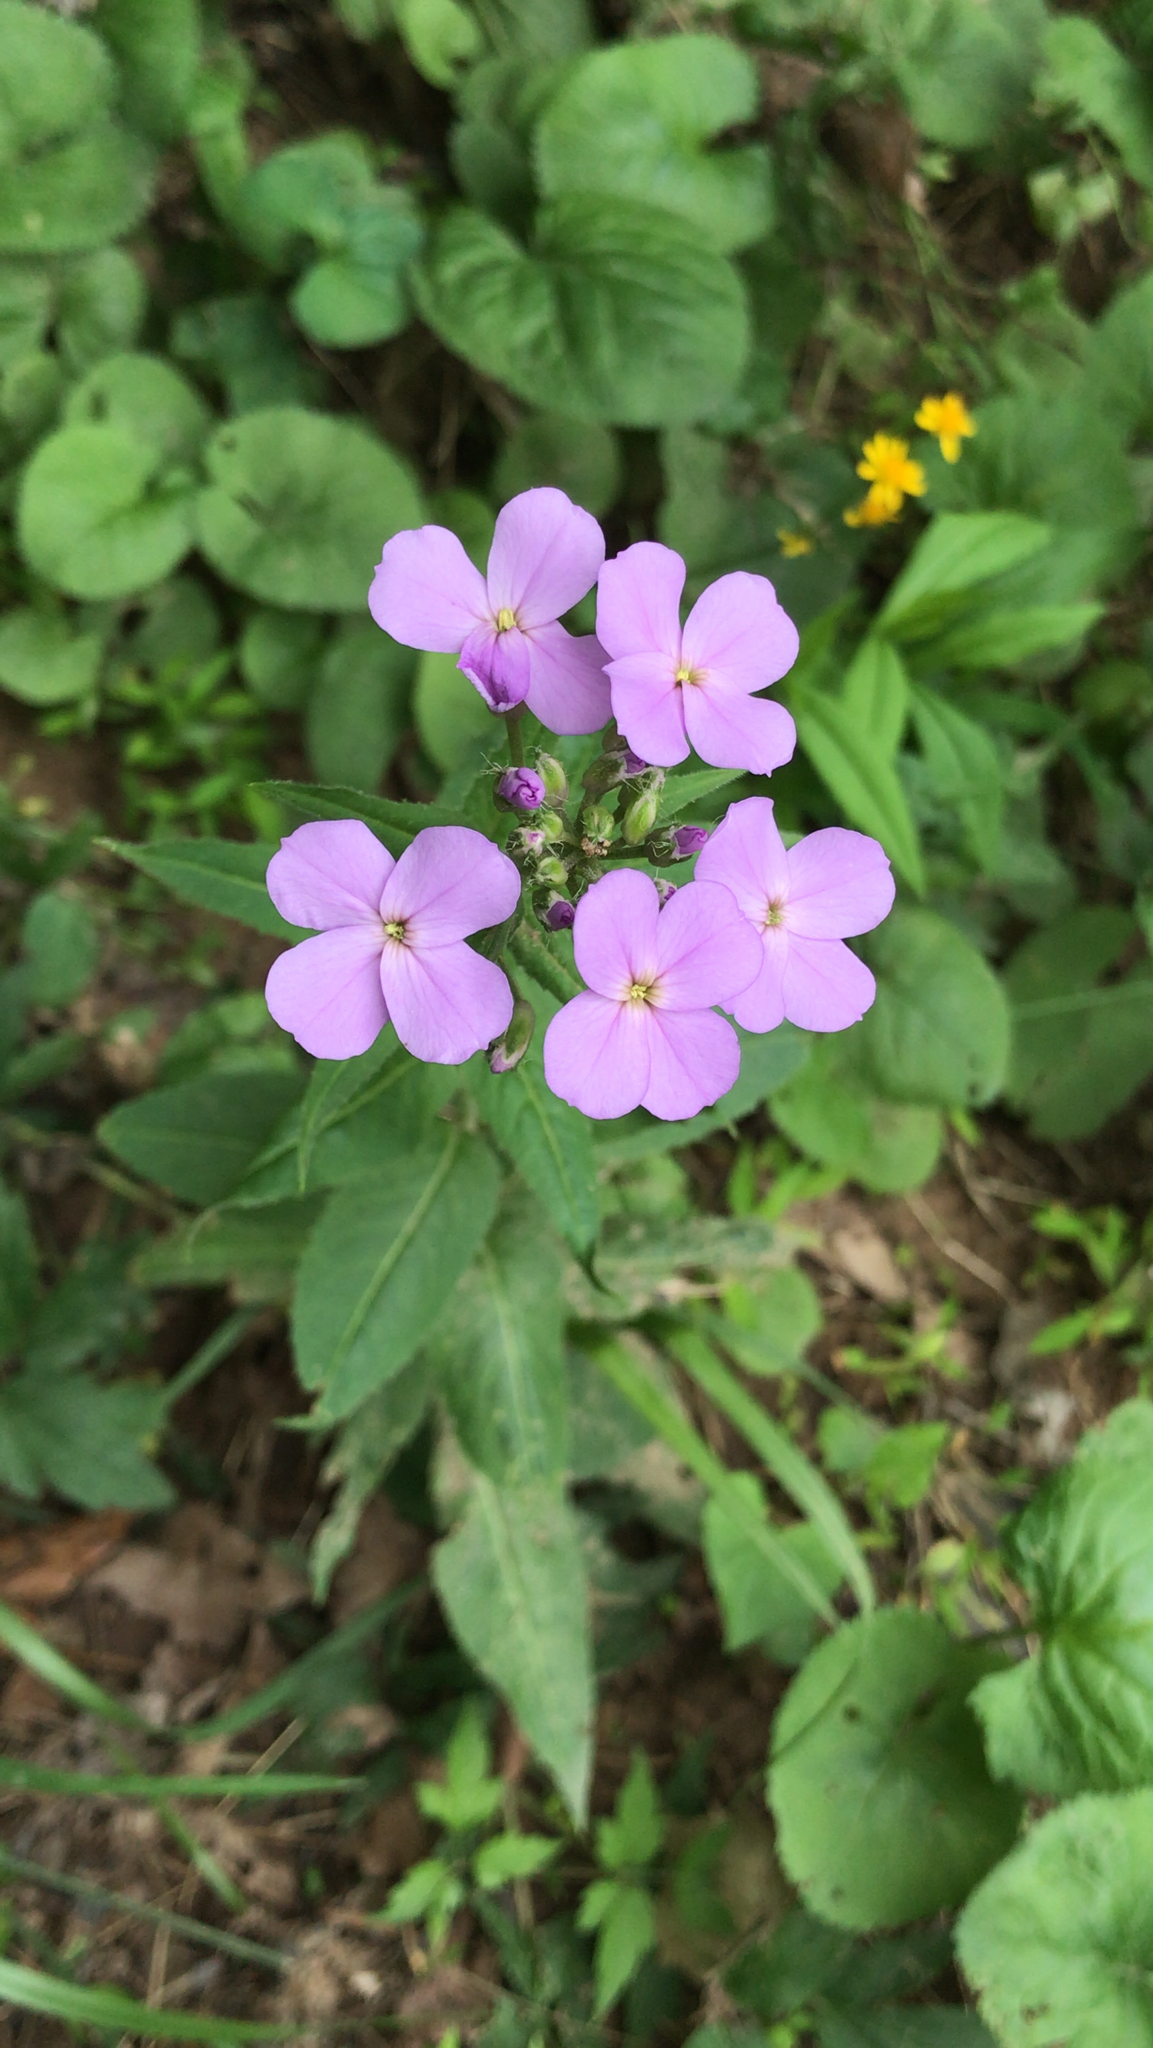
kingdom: Plantae
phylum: Tracheophyta
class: Magnoliopsida
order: Brassicales
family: Brassicaceae
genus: Hesperis
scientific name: Hesperis matronalis
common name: Dame's-violet
